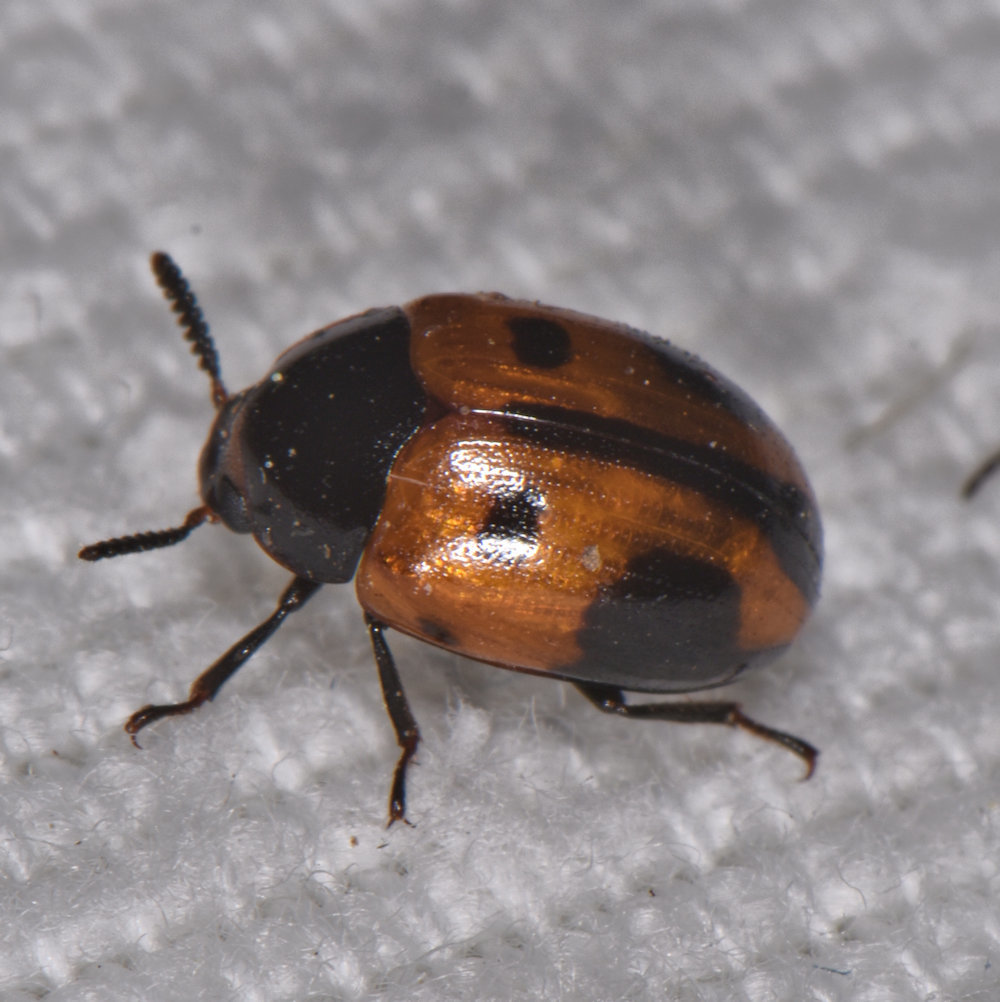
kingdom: Animalia
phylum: Arthropoda
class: Insecta
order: Coleoptera
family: Tenebrionidae
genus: Diaperis
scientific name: Diaperis maculata
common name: Darkling beetle
